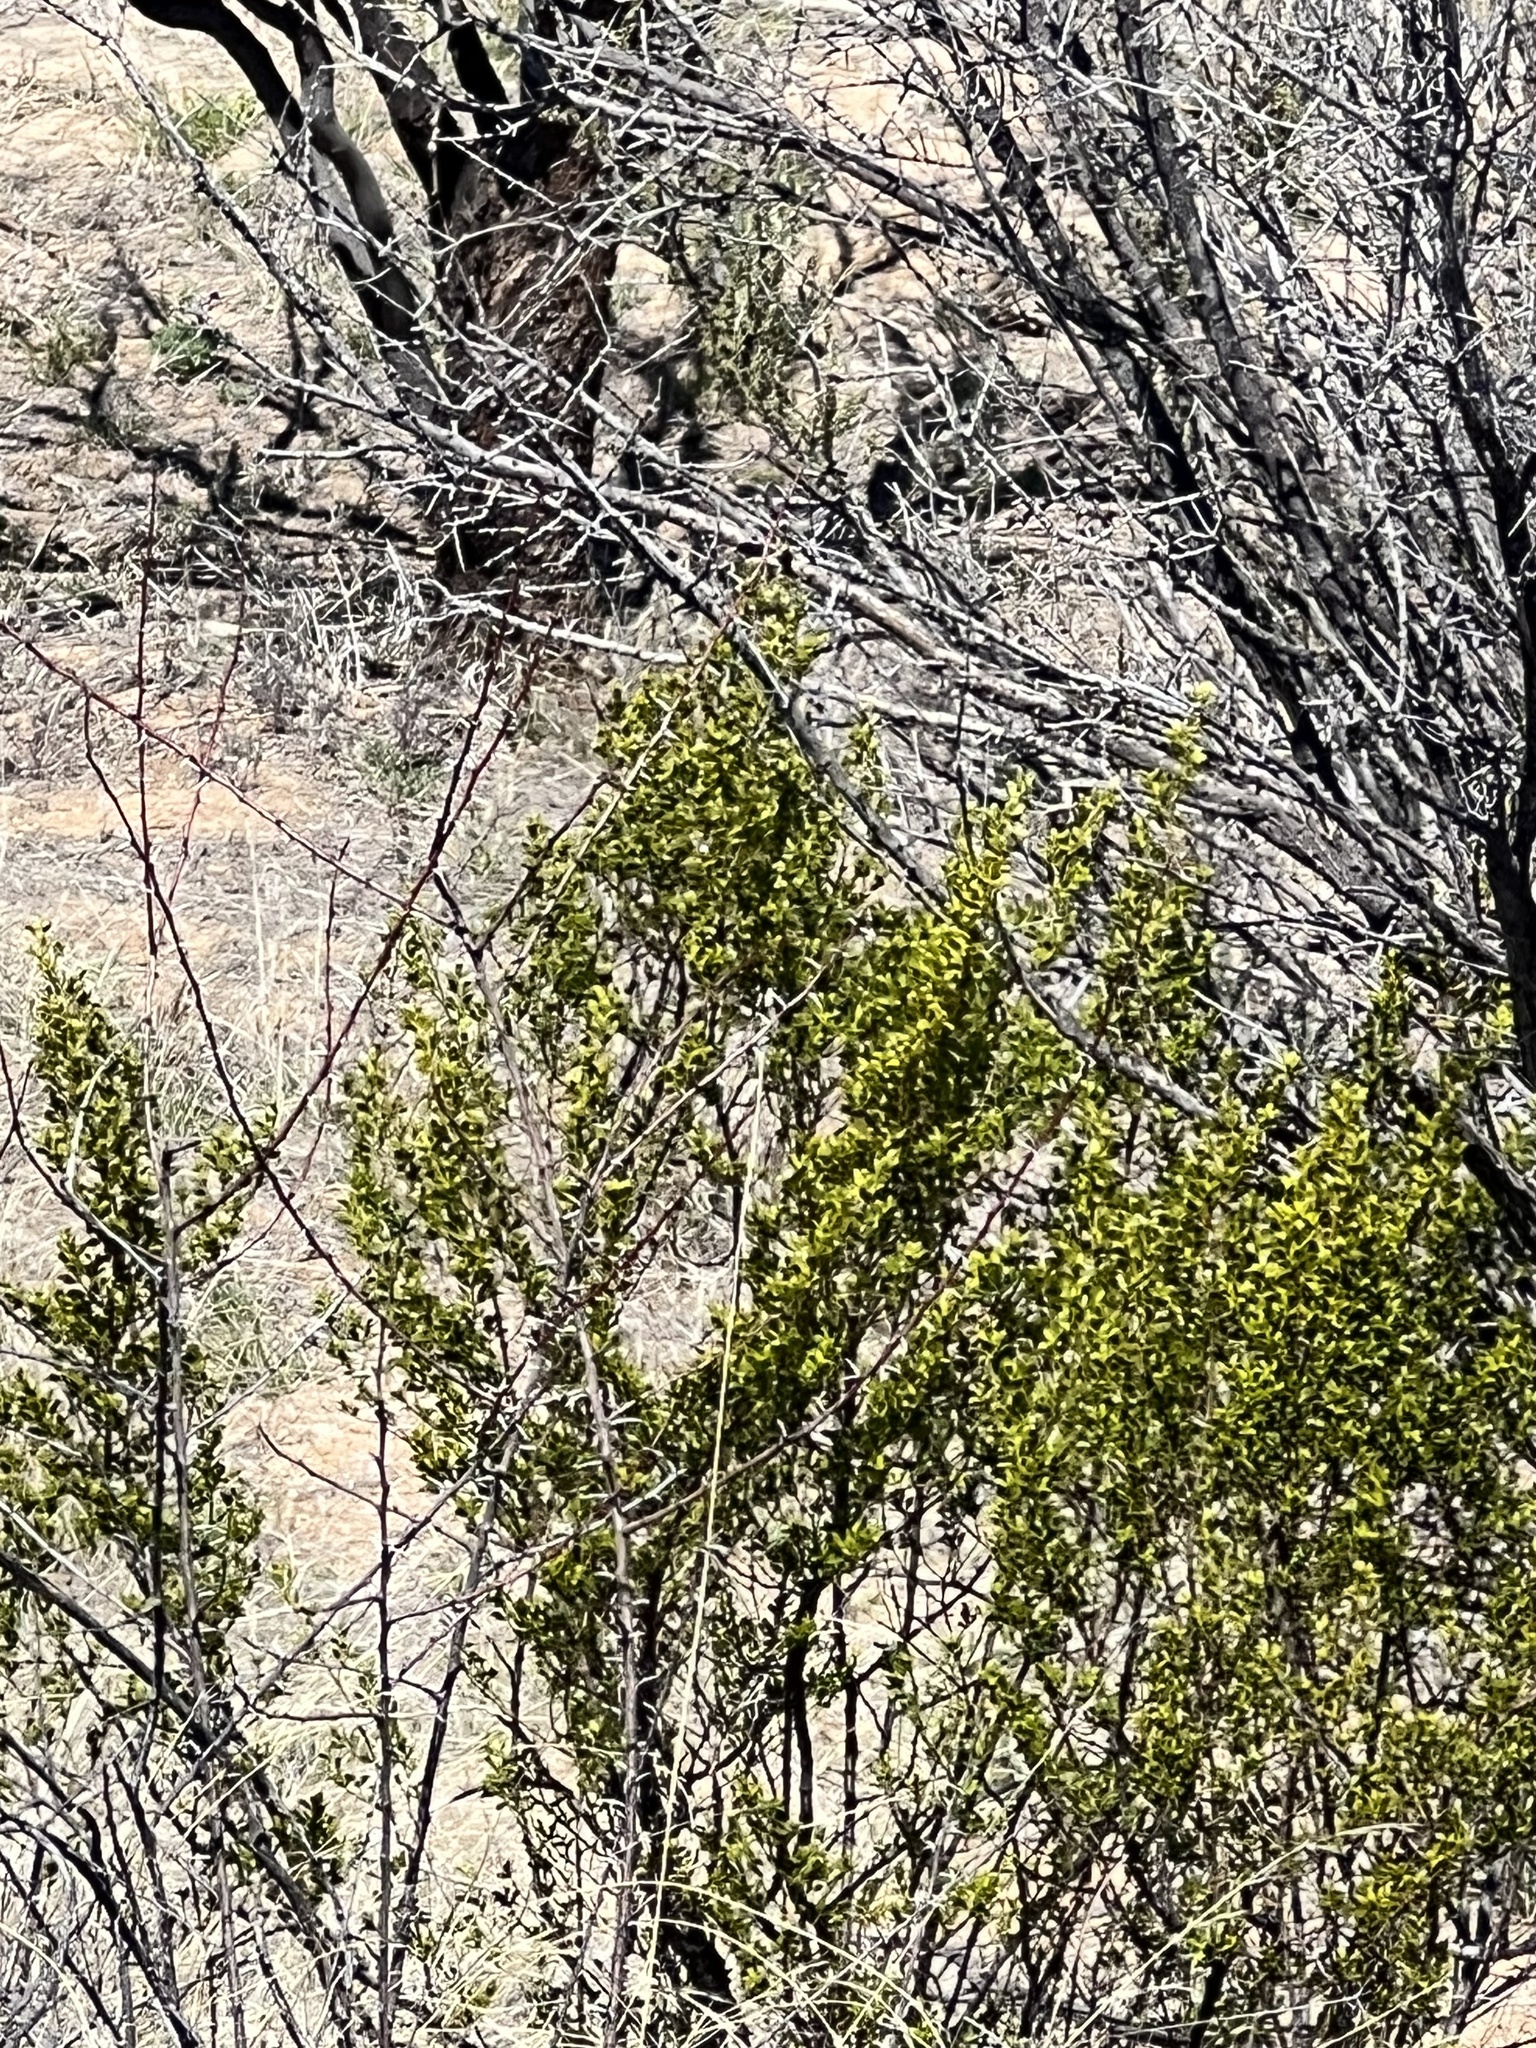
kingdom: Plantae
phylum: Tracheophyta
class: Magnoliopsida
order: Zygophyllales
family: Zygophyllaceae
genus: Larrea
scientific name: Larrea tridentata
